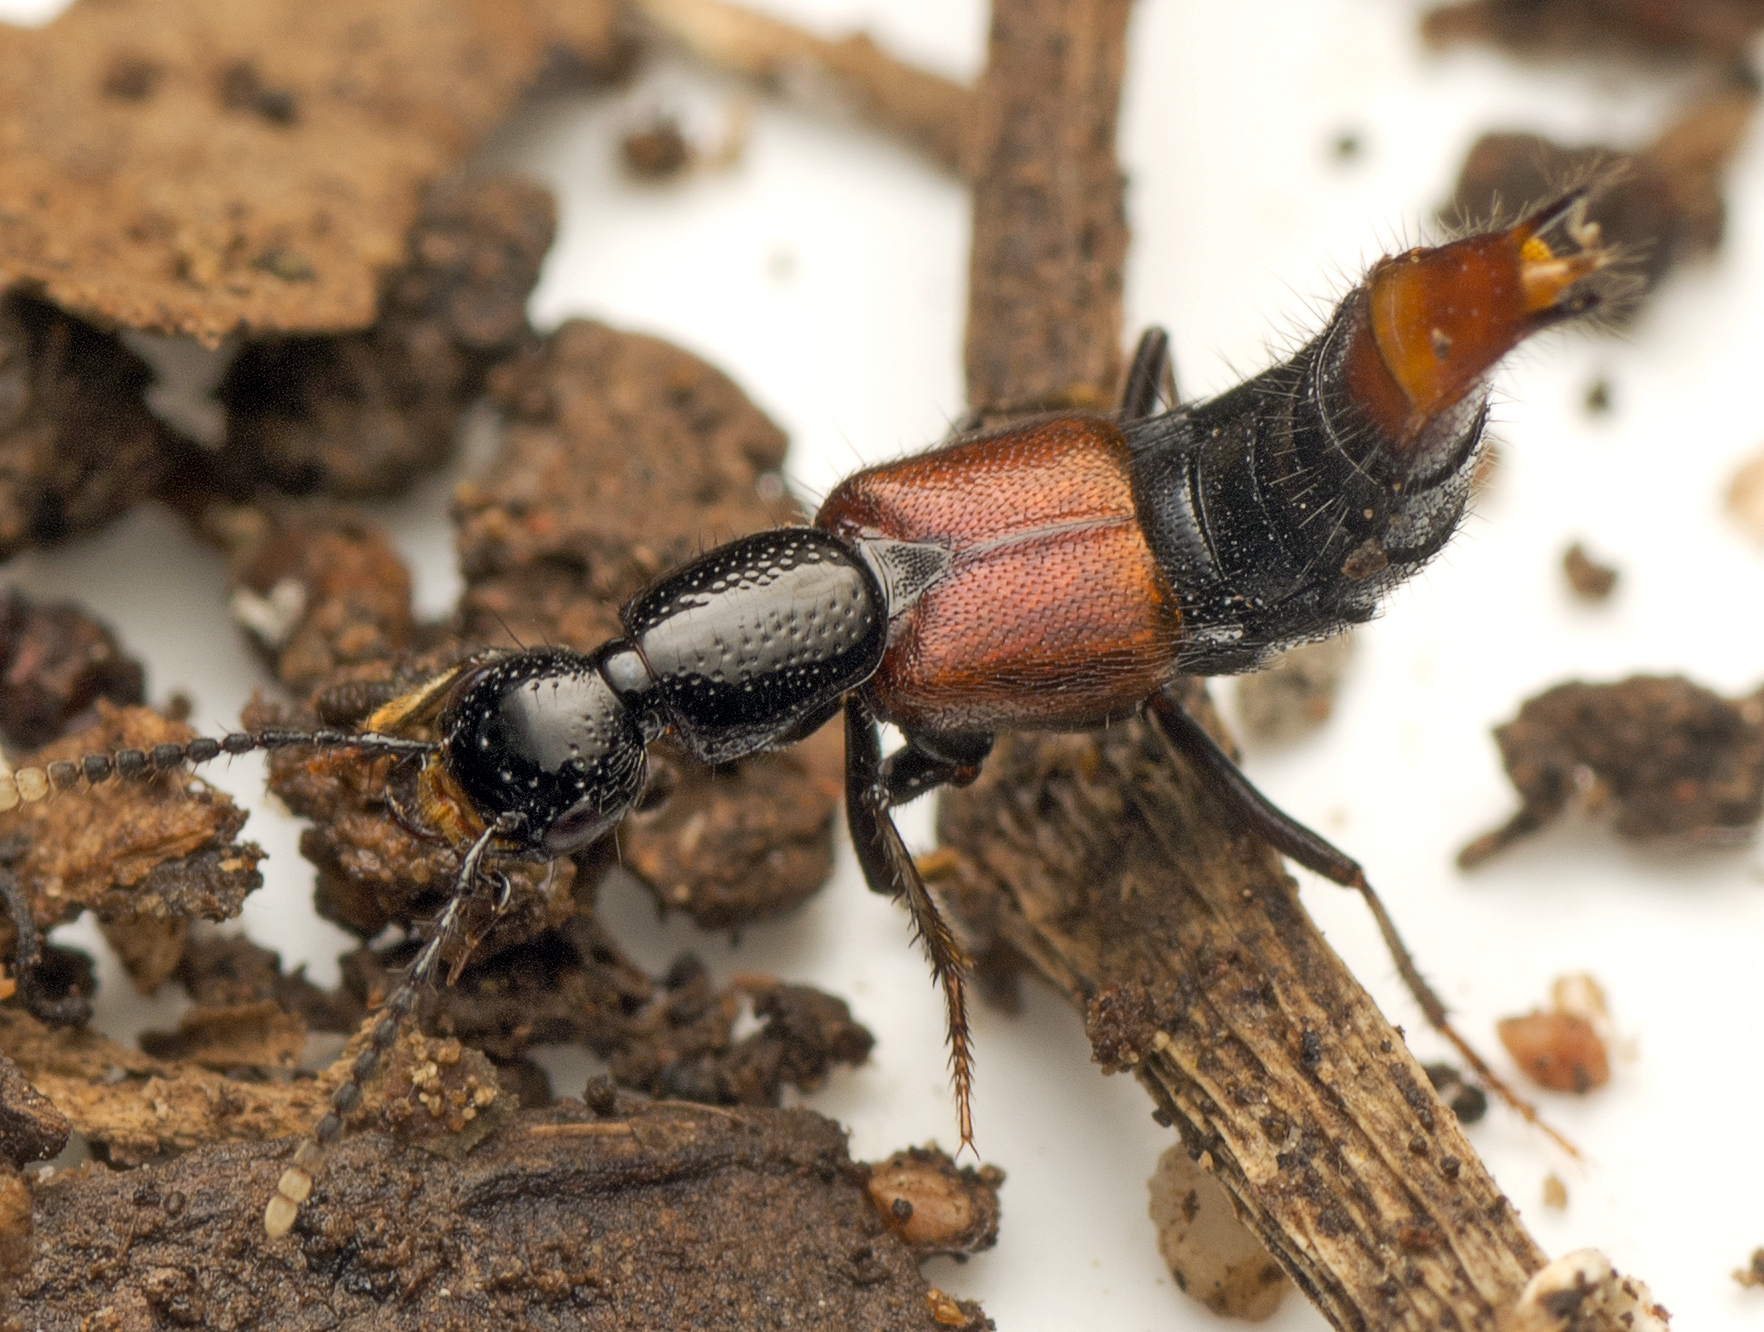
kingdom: Animalia
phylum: Arthropoda
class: Insecta
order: Coleoptera
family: Staphylinidae
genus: Hesperus
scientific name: Hesperus australis
